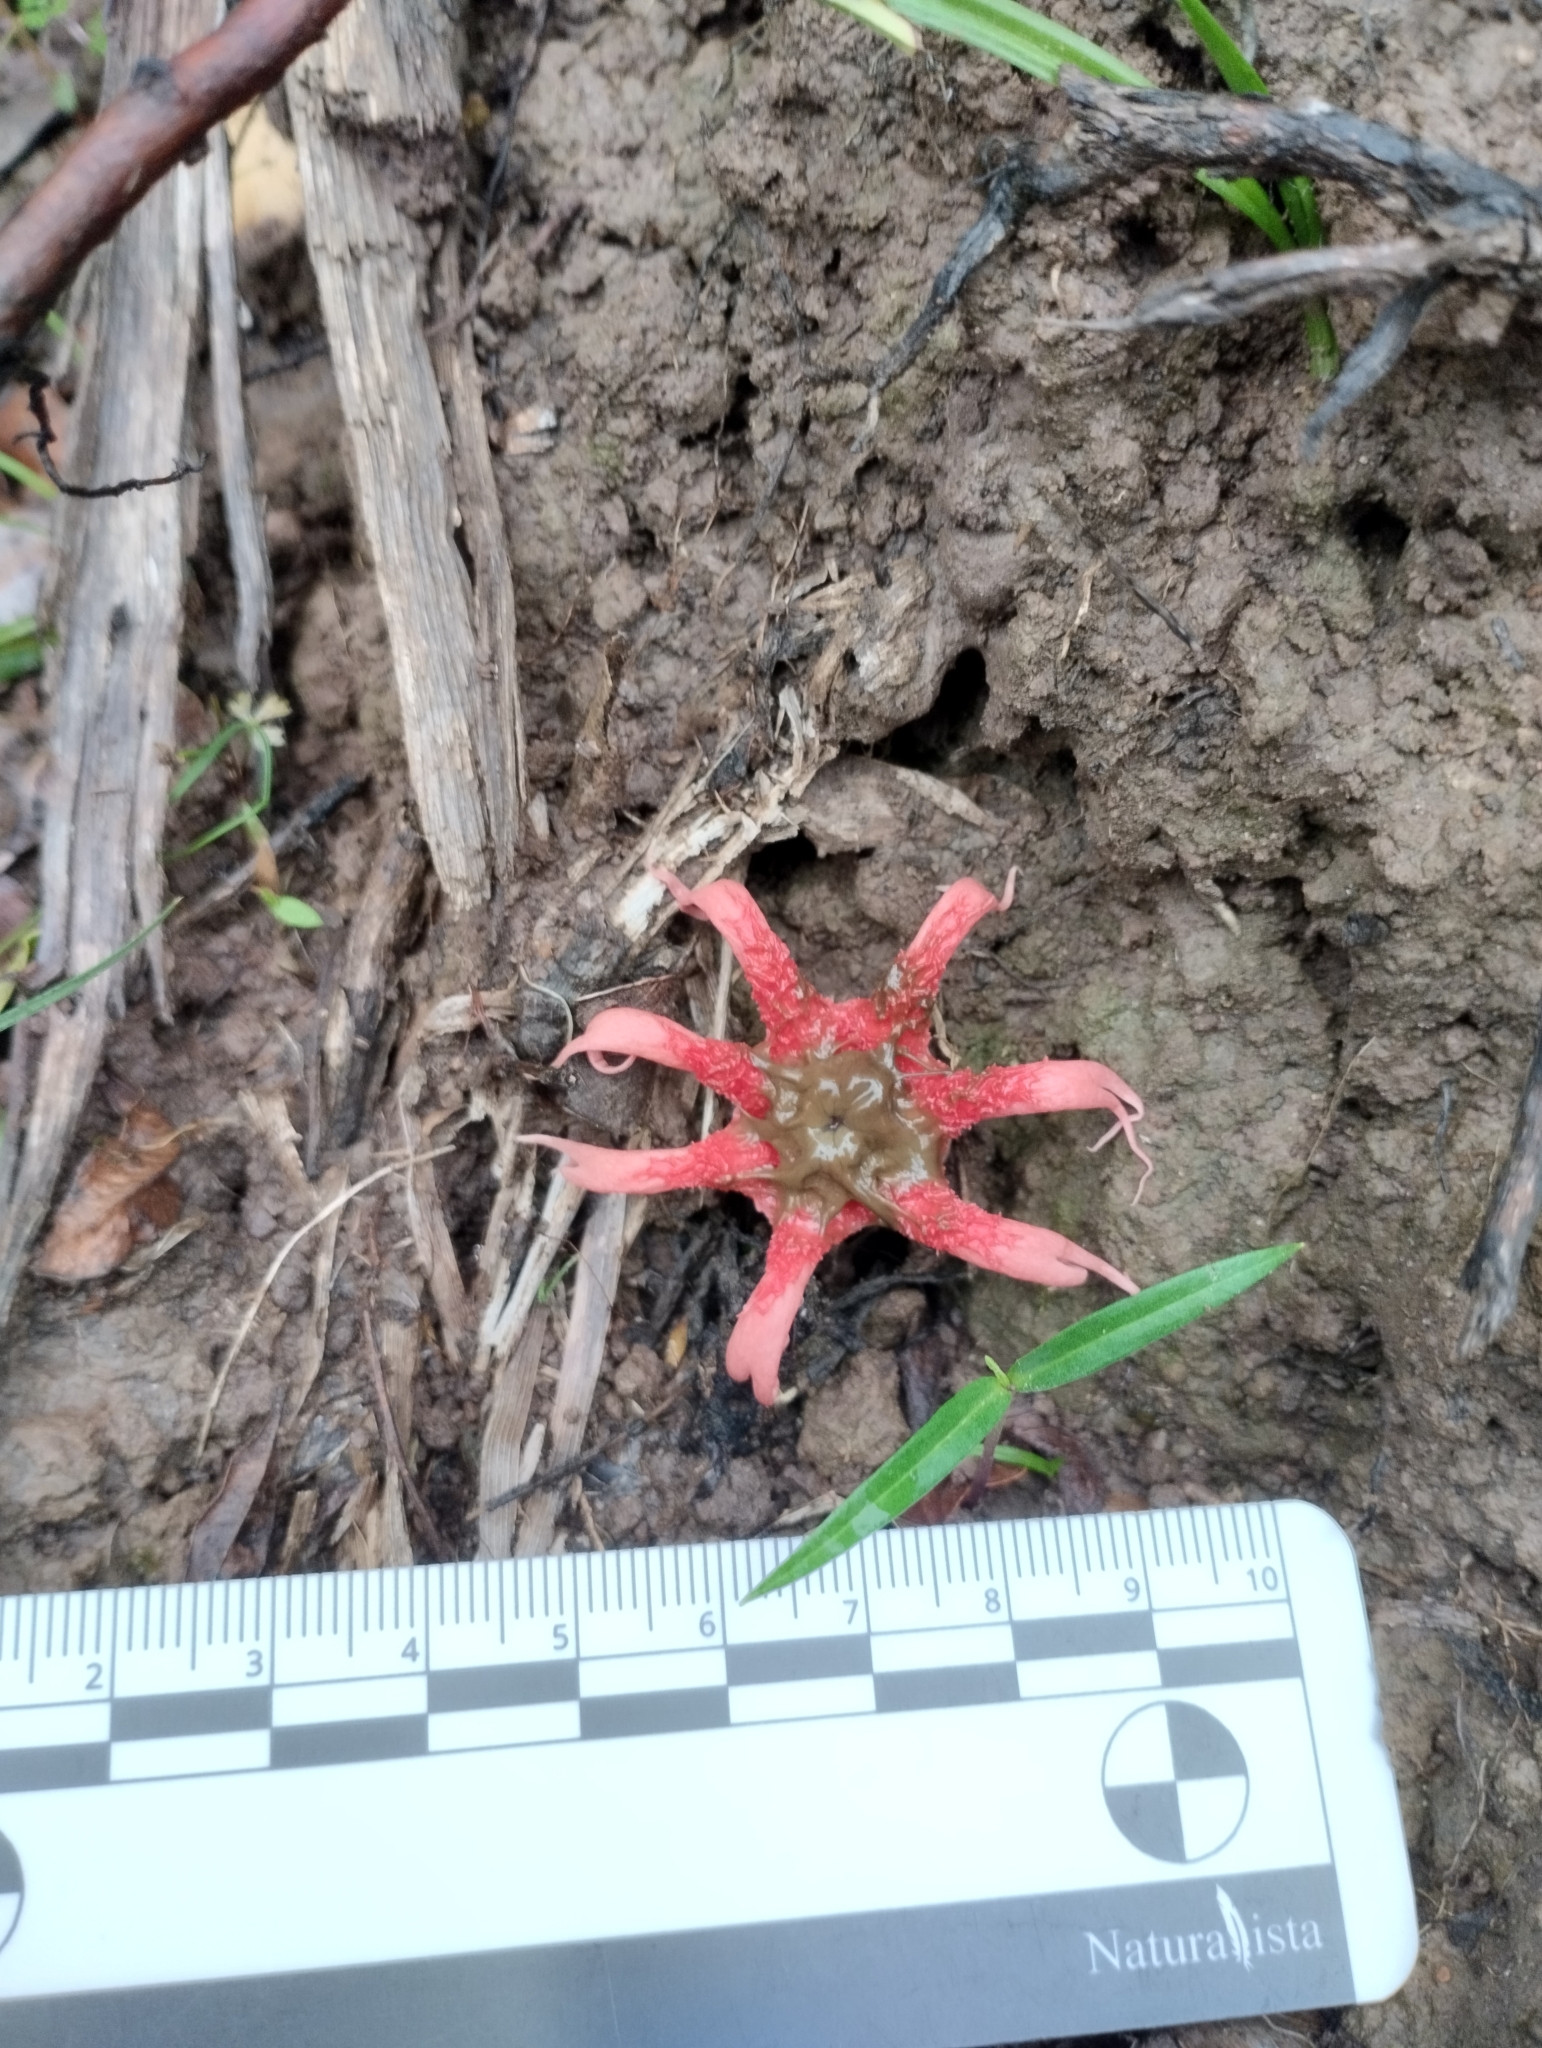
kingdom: Fungi
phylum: Basidiomycota
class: Agaricomycetes
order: Phallales
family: Phallaceae
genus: Aseroe
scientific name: Aseroe rubra
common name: Starfish fungus
